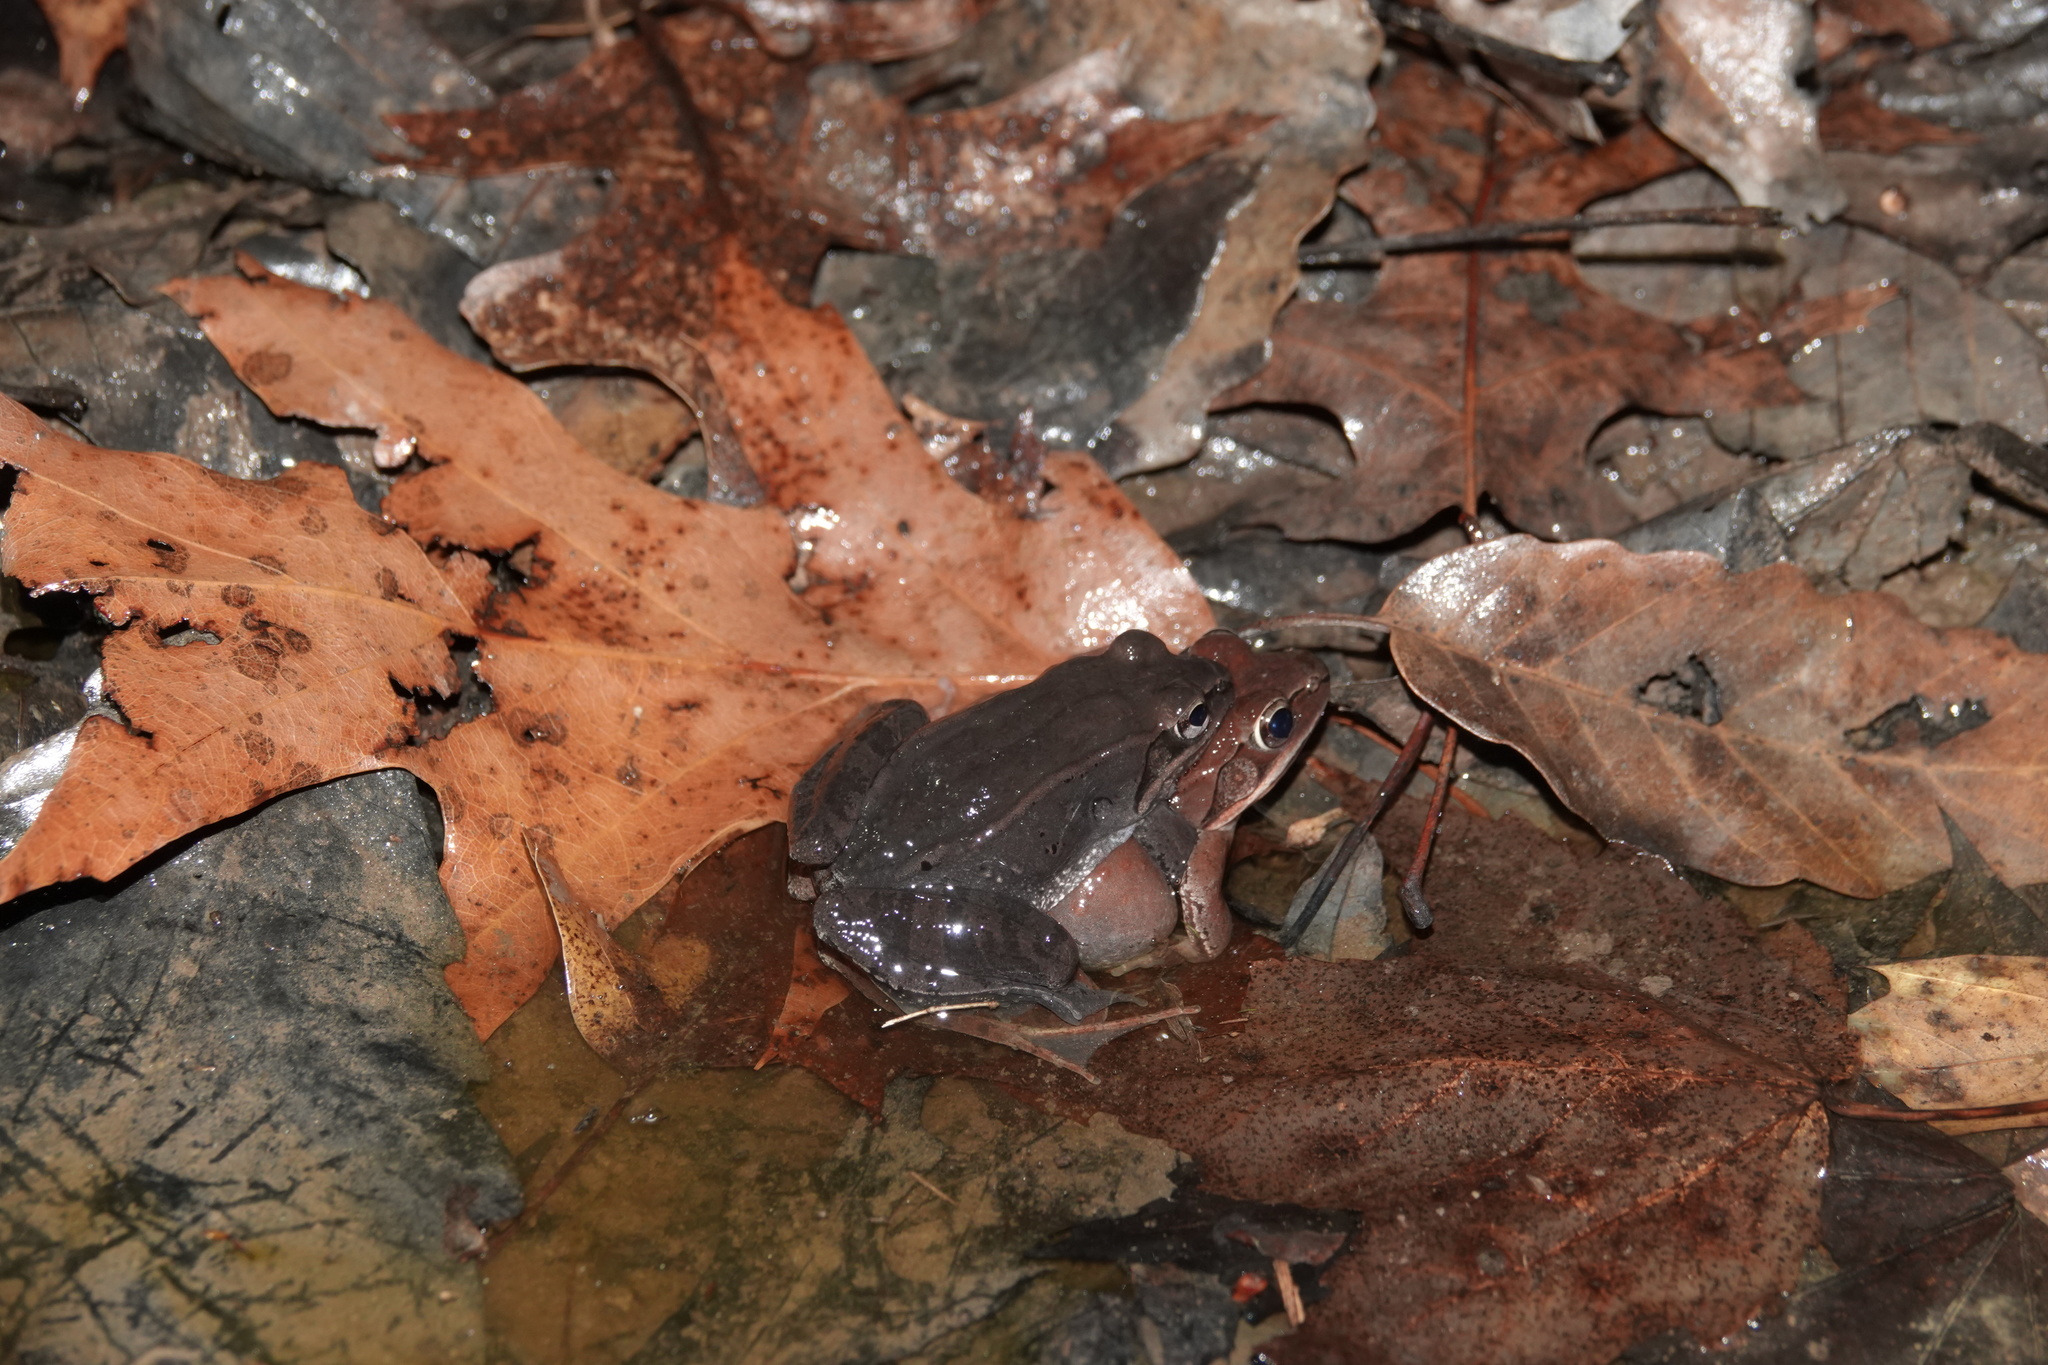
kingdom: Animalia
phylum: Chordata
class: Amphibia
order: Anura
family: Ranidae
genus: Lithobates
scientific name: Lithobates sylvaticus
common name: Wood frog
